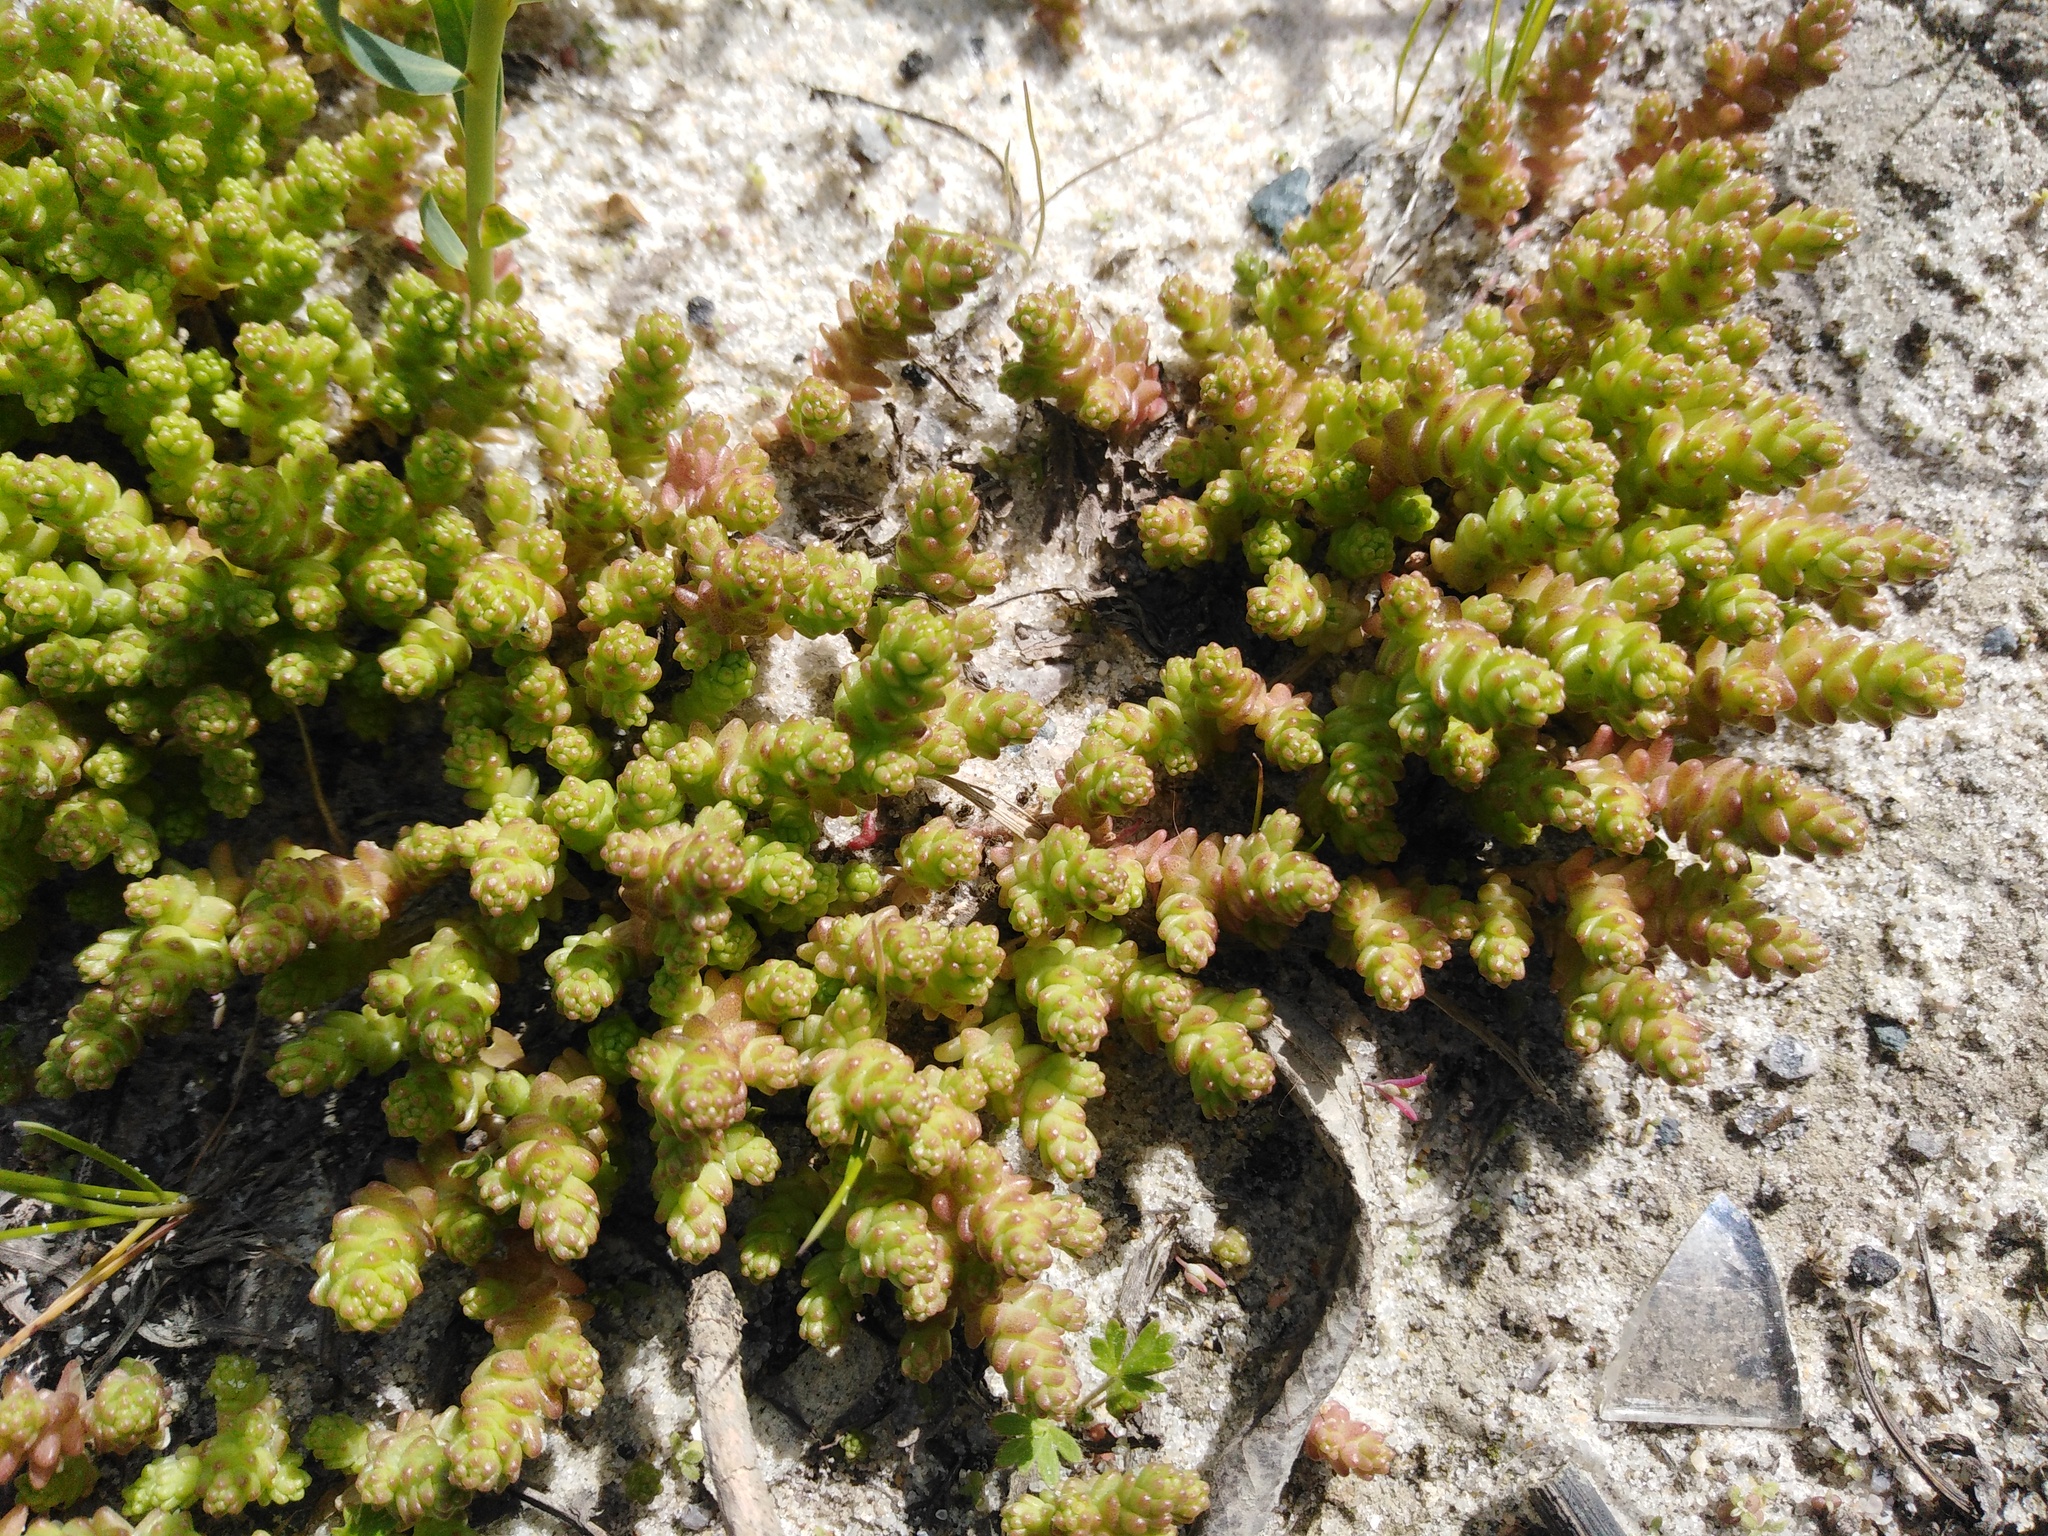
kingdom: Plantae
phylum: Tracheophyta
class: Magnoliopsida
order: Saxifragales
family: Crassulaceae
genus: Sedum
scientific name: Sedum acre
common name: Biting stonecrop
